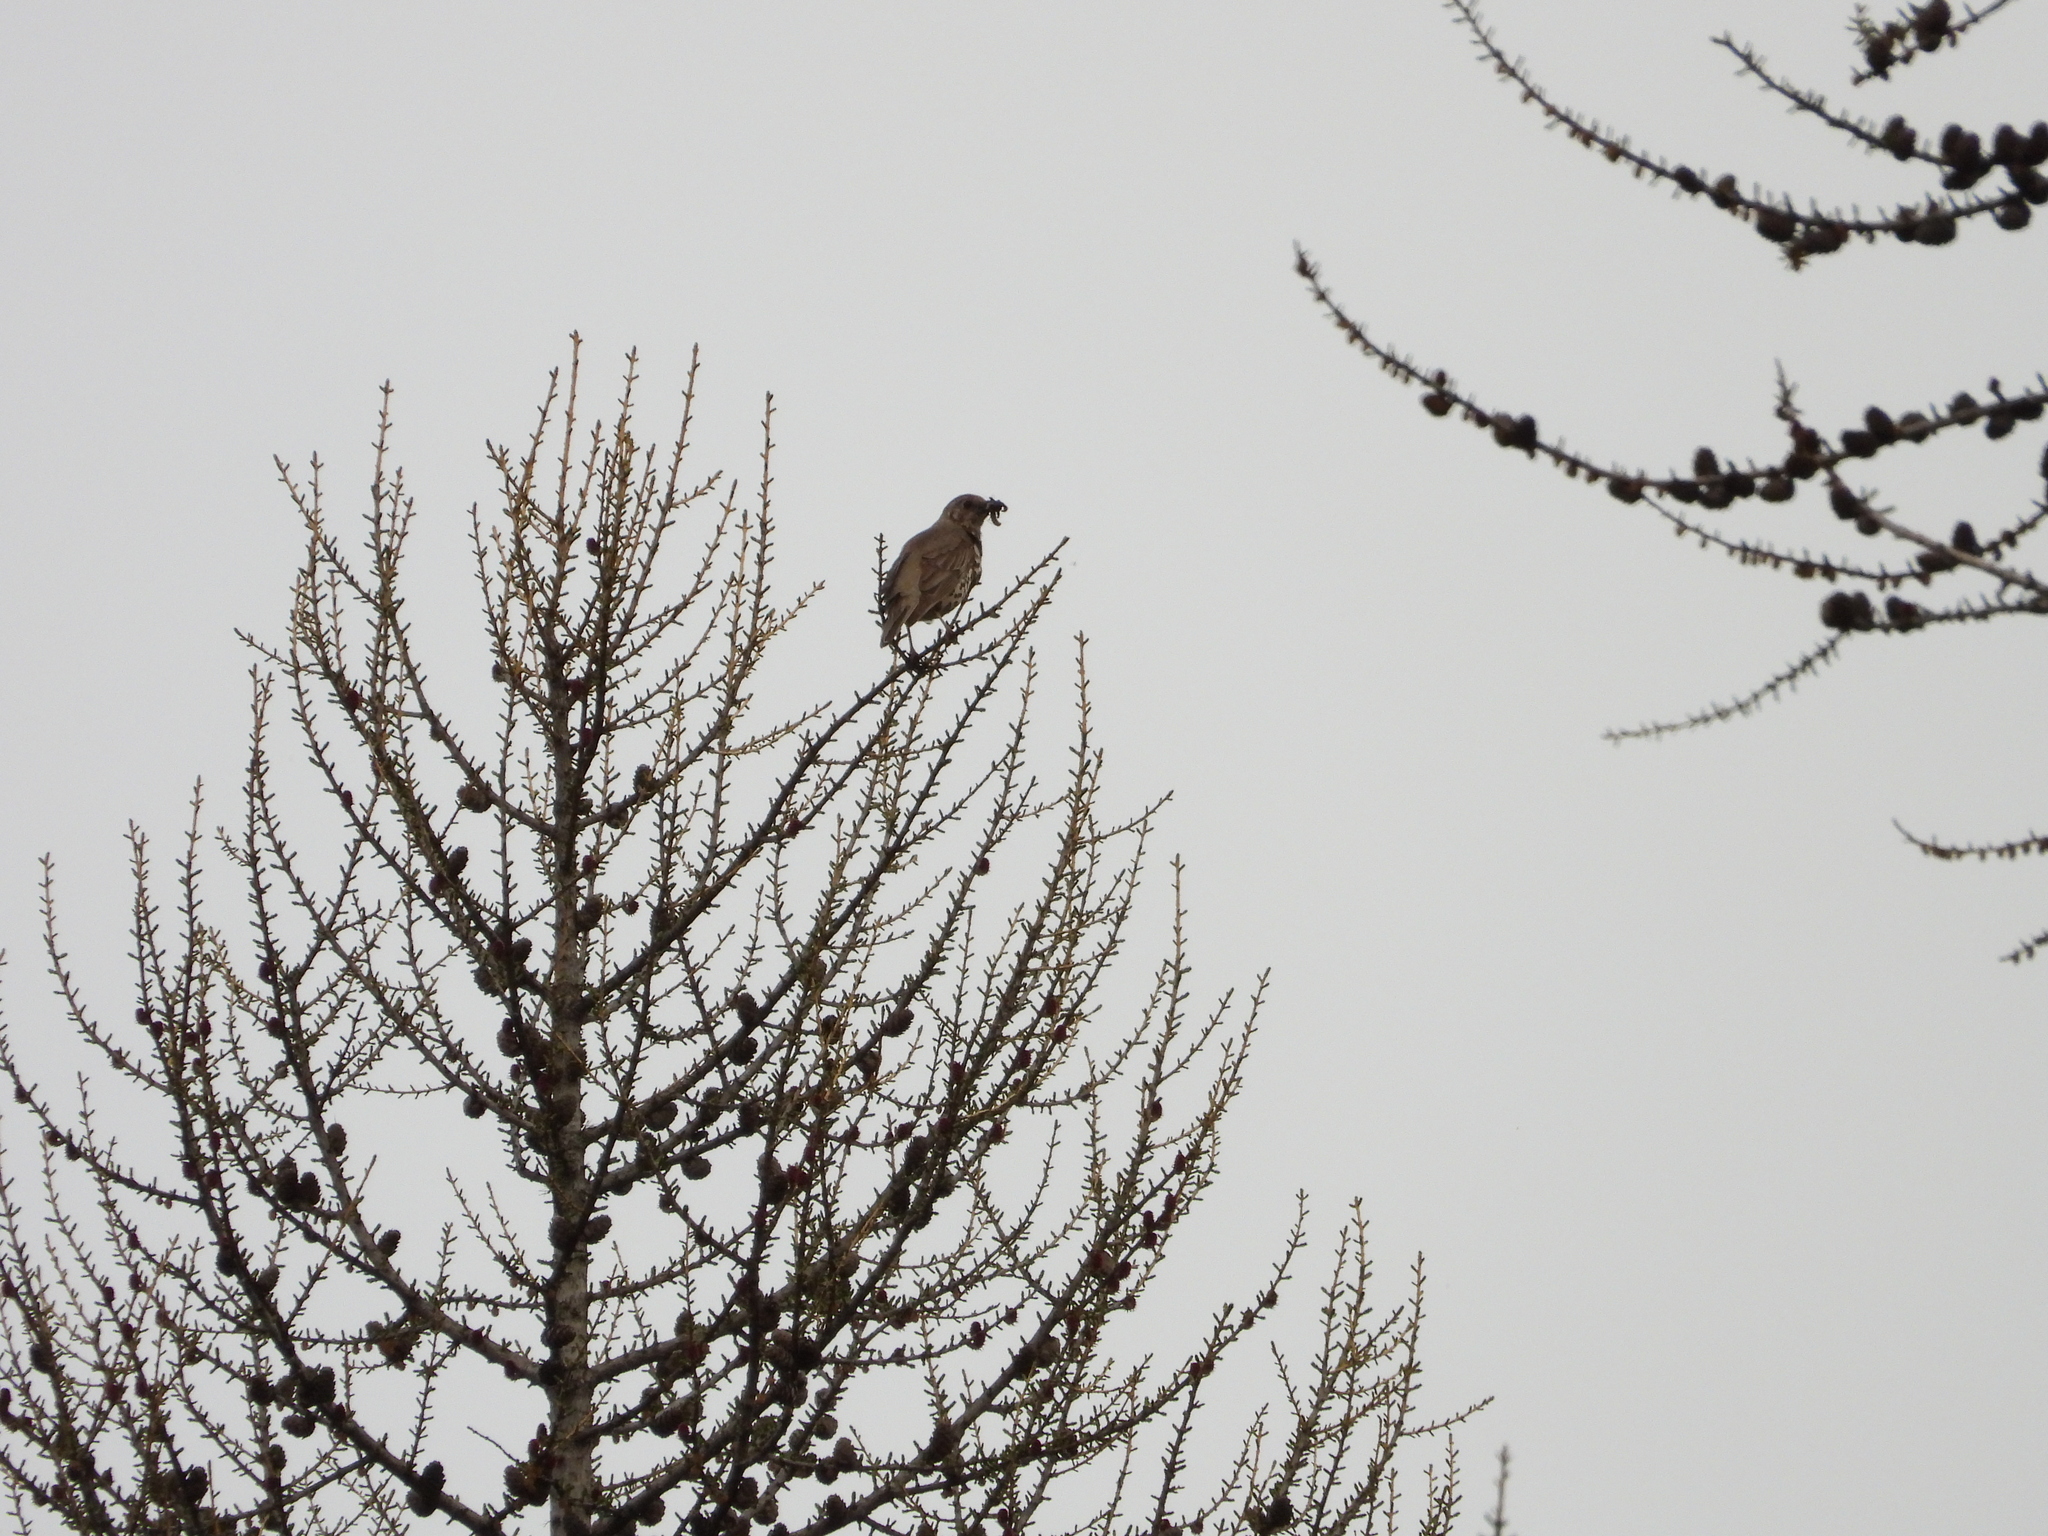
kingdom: Animalia
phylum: Chordata
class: Aves
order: Passeriformes
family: Turdidae
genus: Turdus
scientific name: Turdus viscivorus
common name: Mistle thrush
